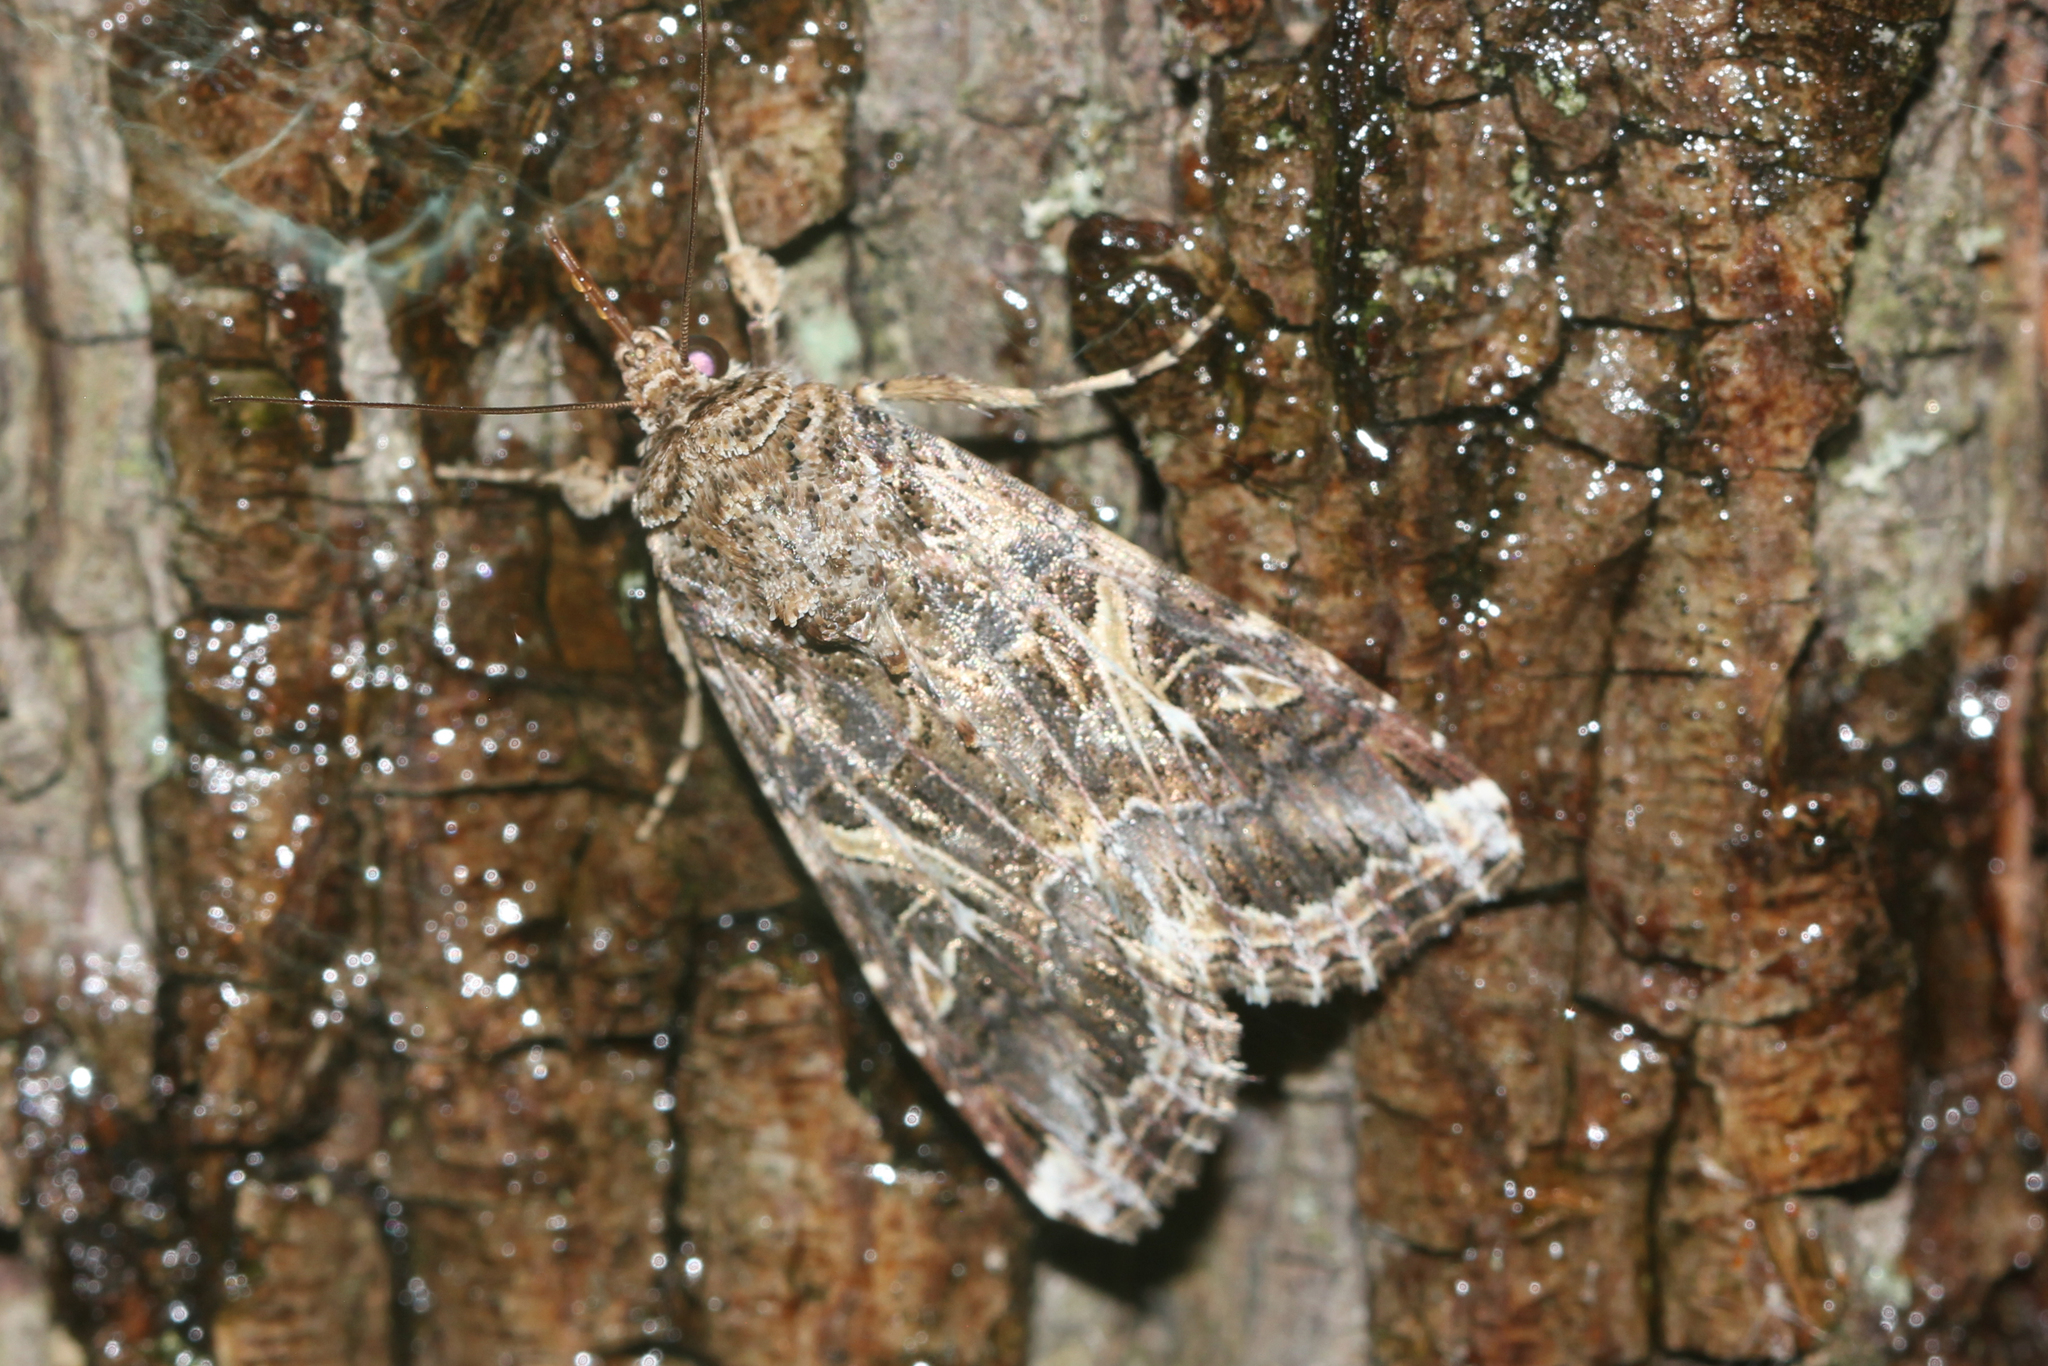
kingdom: Animalia
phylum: Arthropoda
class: Insecta
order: Lepidoptera
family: Noctuidae
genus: Spodoptera
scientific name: Spodoptera ornithogalli
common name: Yellow-striped armyworm
